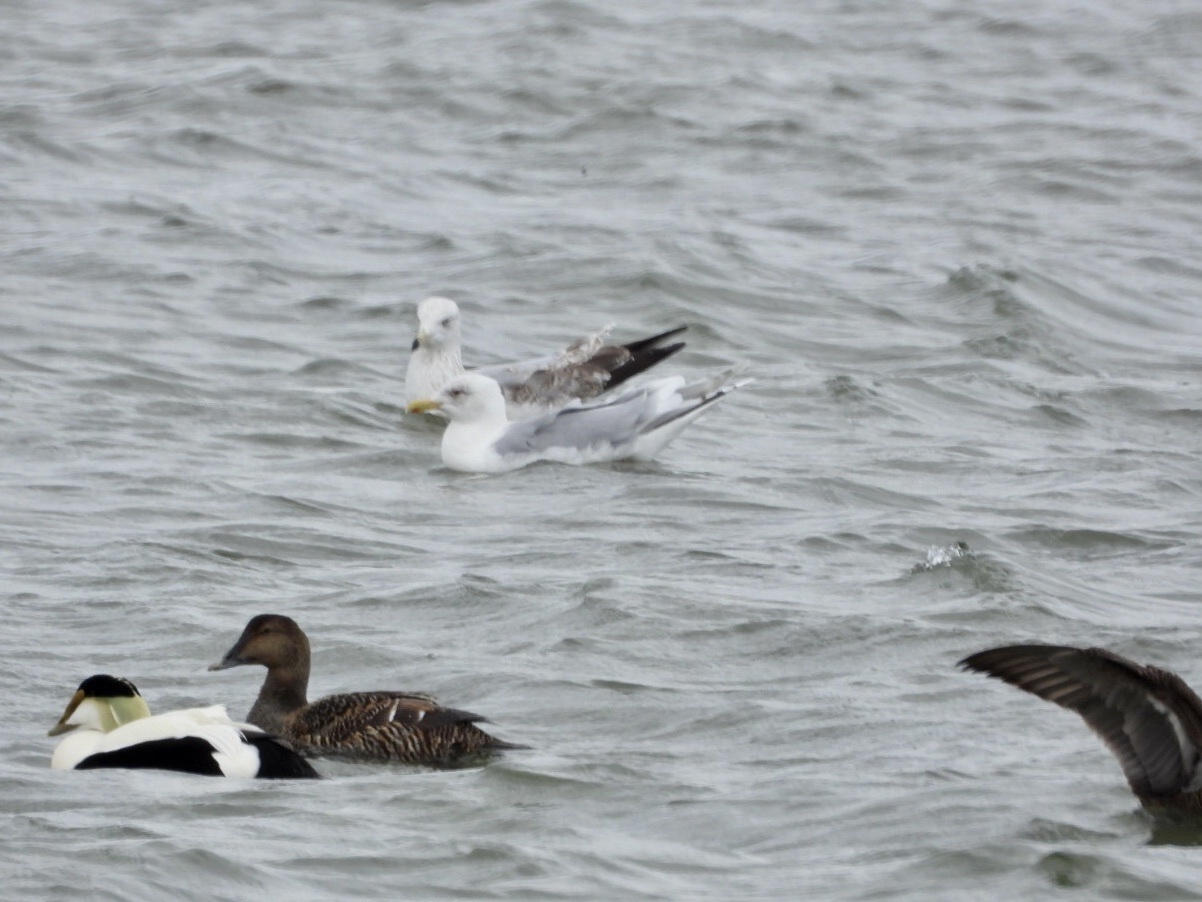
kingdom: Animalia
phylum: Chordata
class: Aves
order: Charadriiformes
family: Laridae
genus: Larus
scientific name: Larus argentatus
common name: Herring gull
